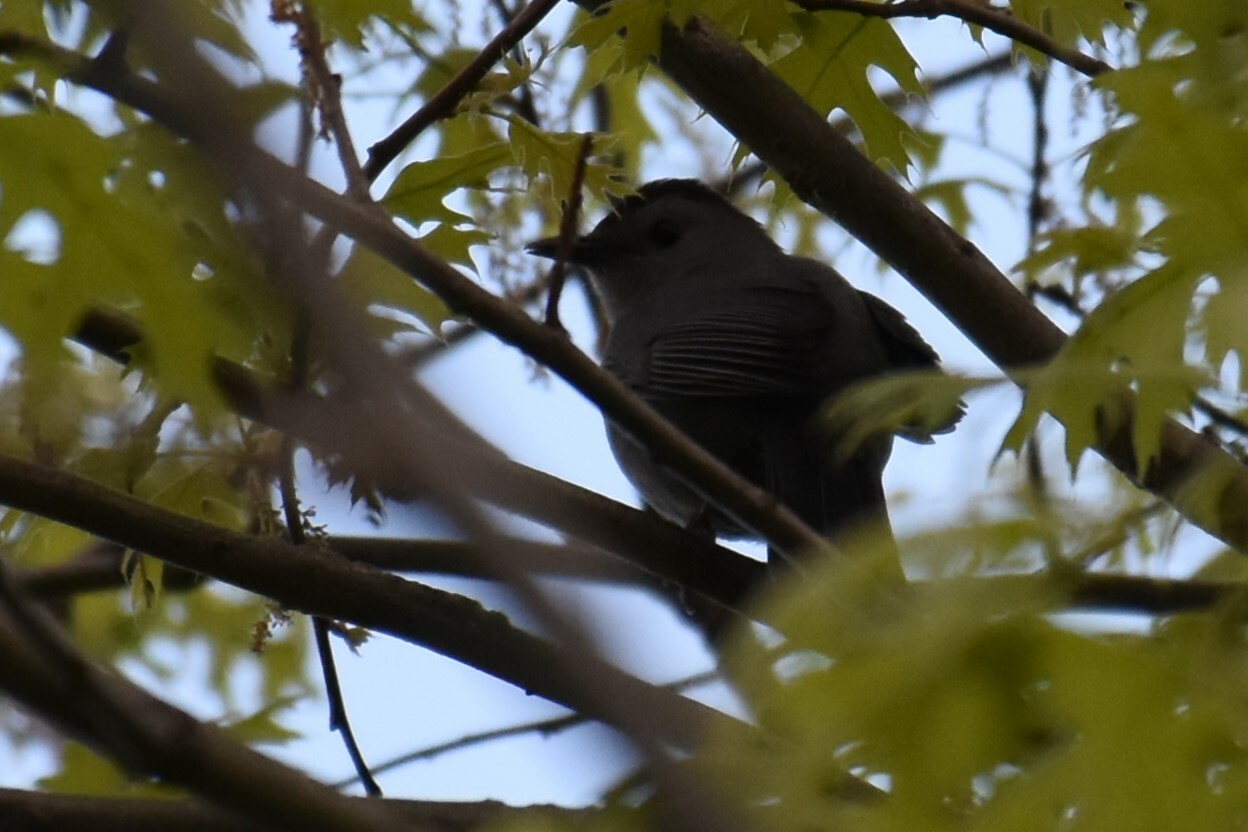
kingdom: Animalia
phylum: Chordata
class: Aves
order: Passeriformes
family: Mimidae
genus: Dumetella
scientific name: Dumetella carolinensis
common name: Gray catbird
